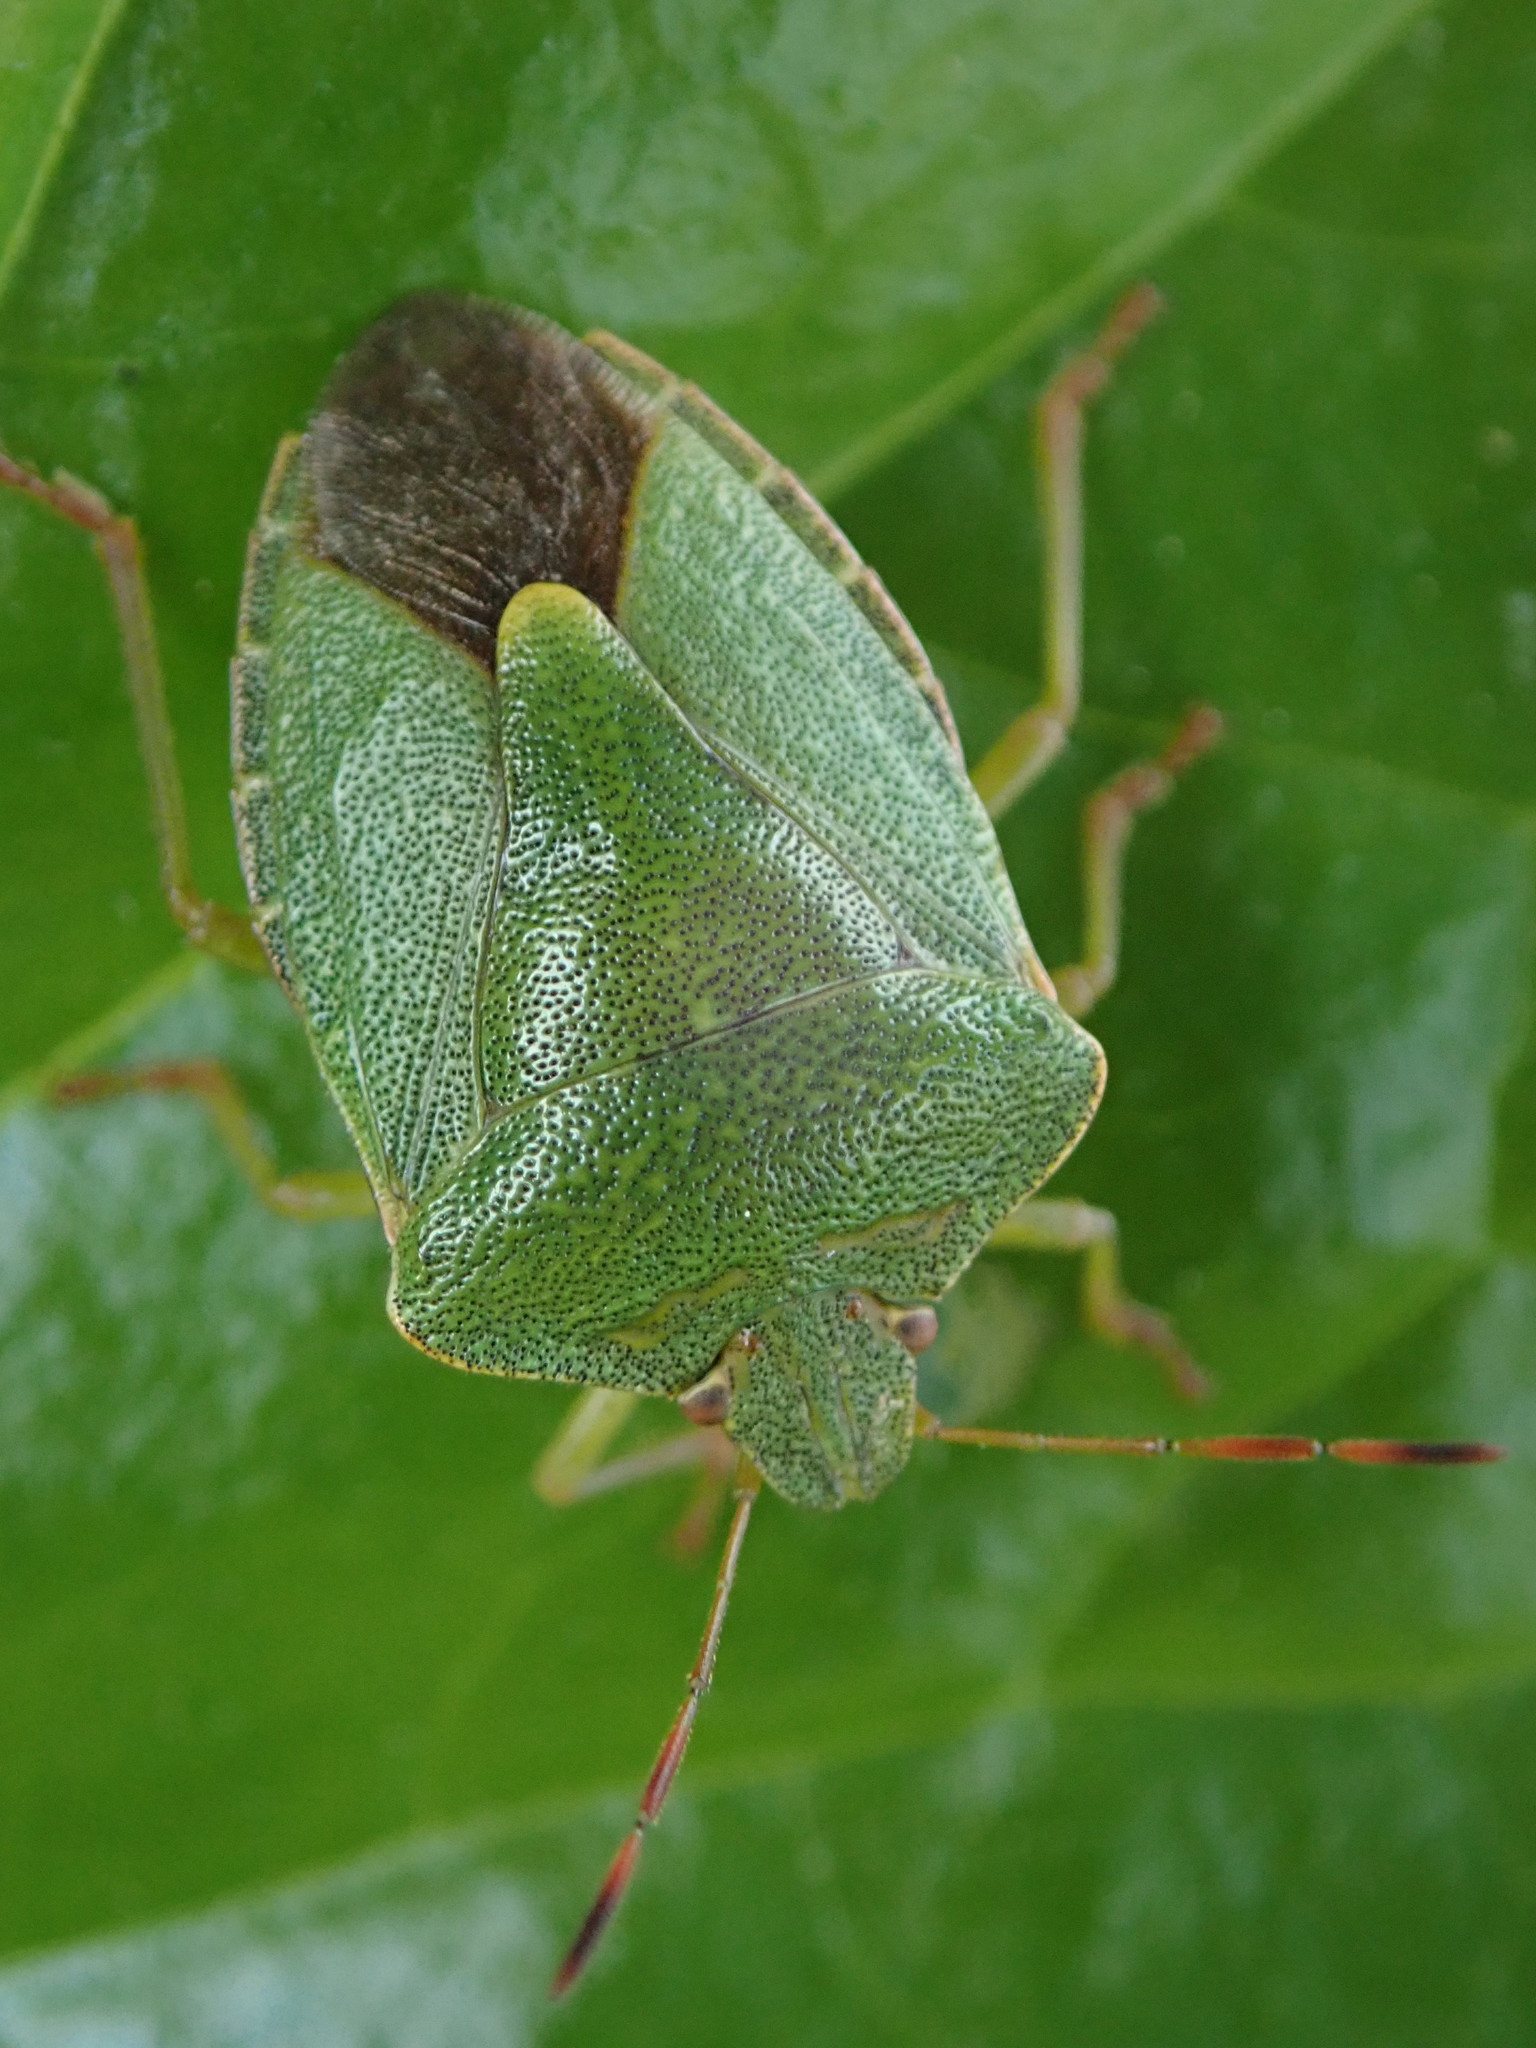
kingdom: Animalia
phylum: Arthropoda
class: Insecta
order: Hemiptera
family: Pentatomidae
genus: Palomena
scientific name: Palomena prasina
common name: Green shieldbug
